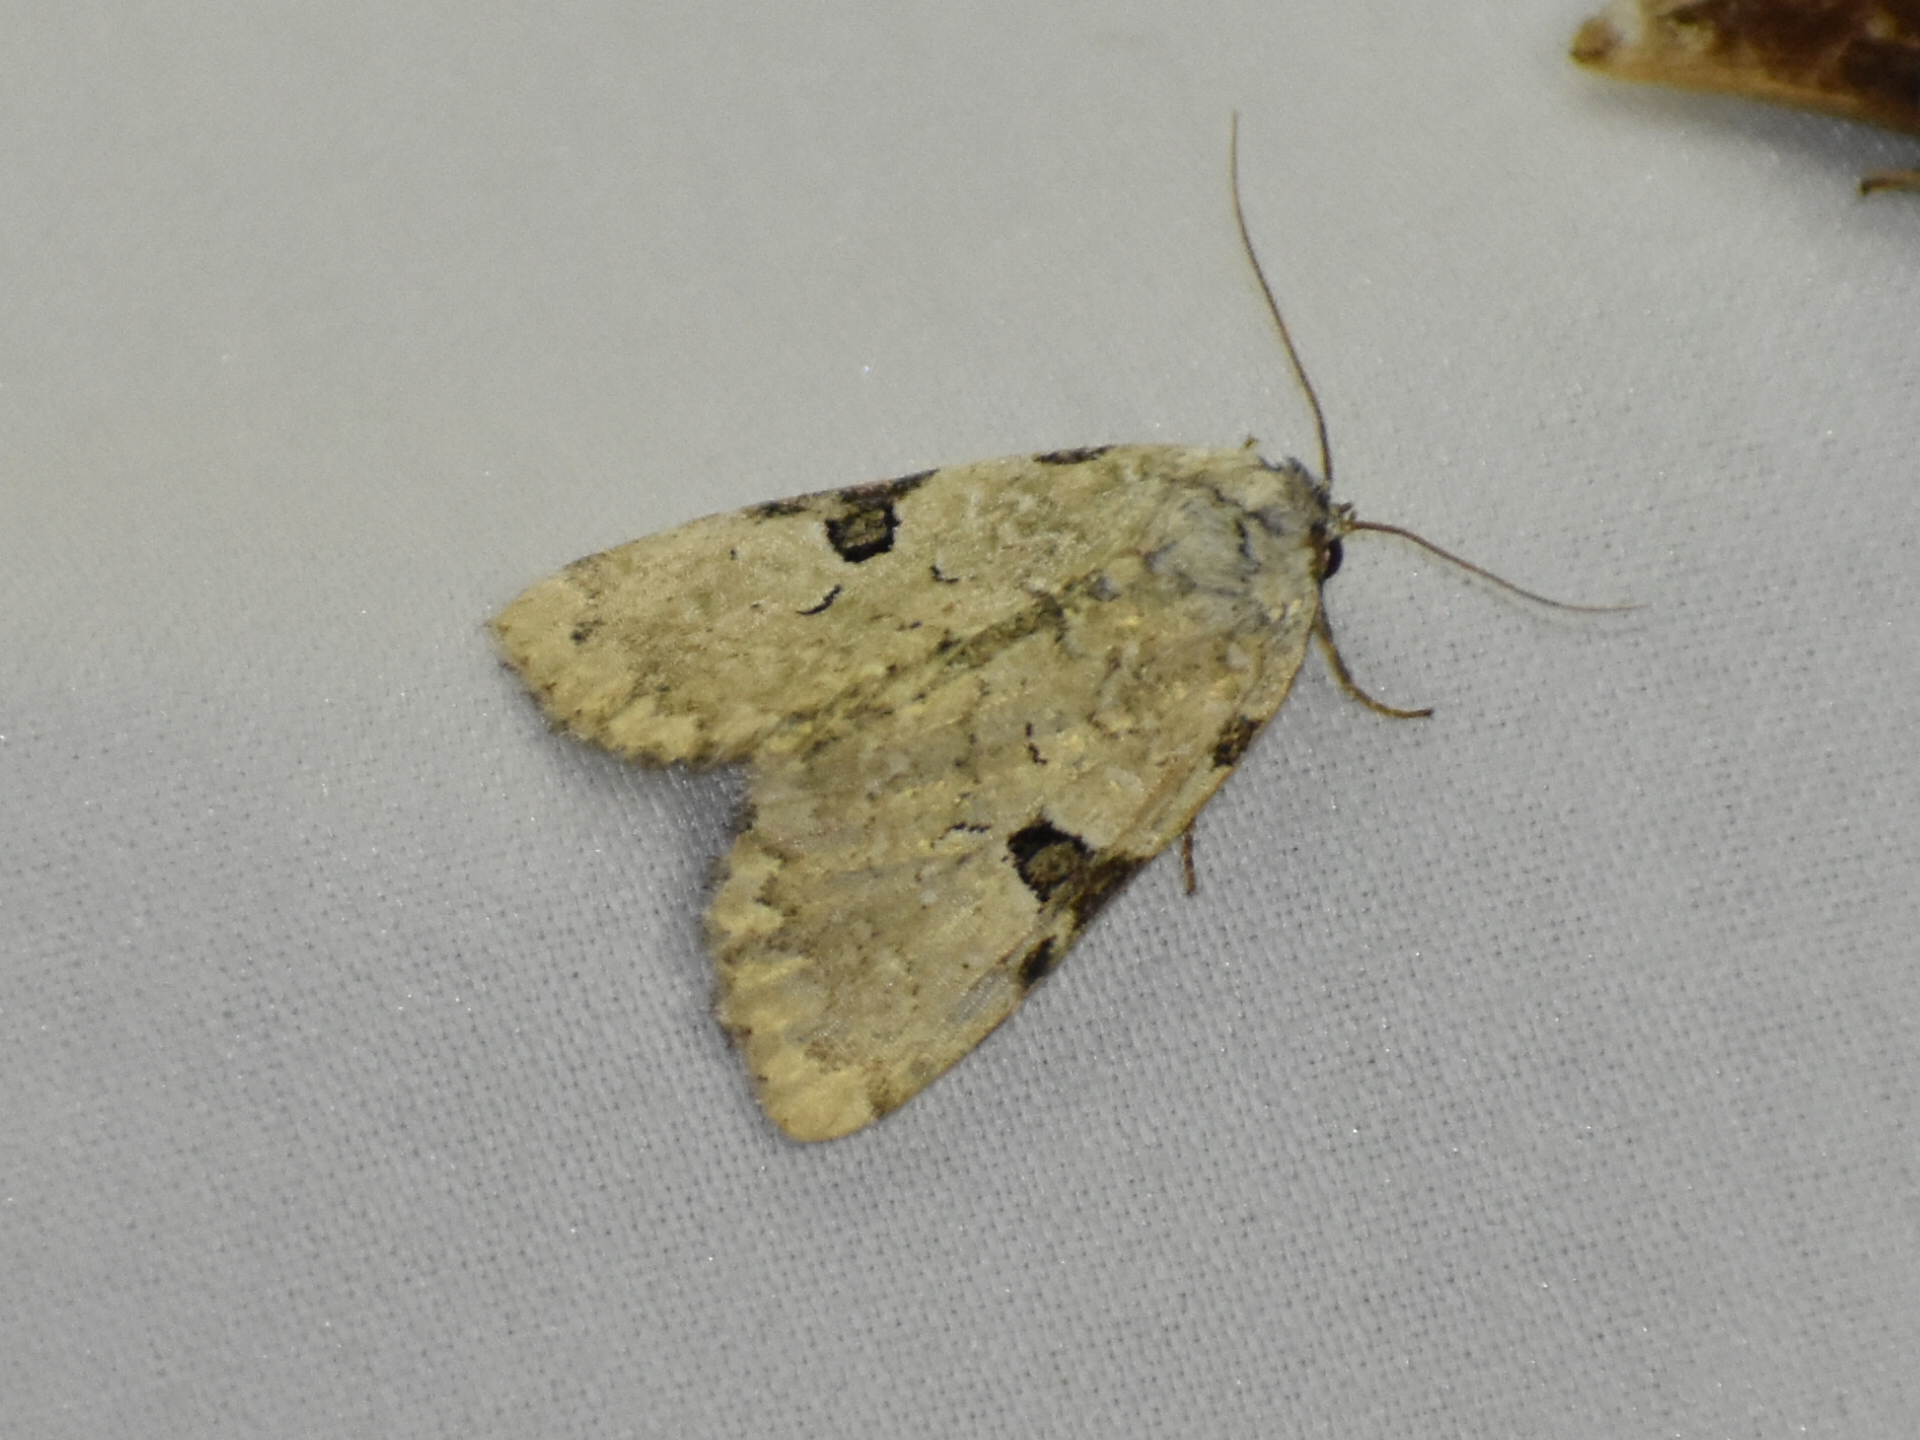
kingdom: Animalia
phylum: Arthropoda
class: Insecta
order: Lepidoptera
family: Noctuidae
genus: Leuconycta
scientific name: Leuconycta diphteroides
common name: Green leuconycta moth
